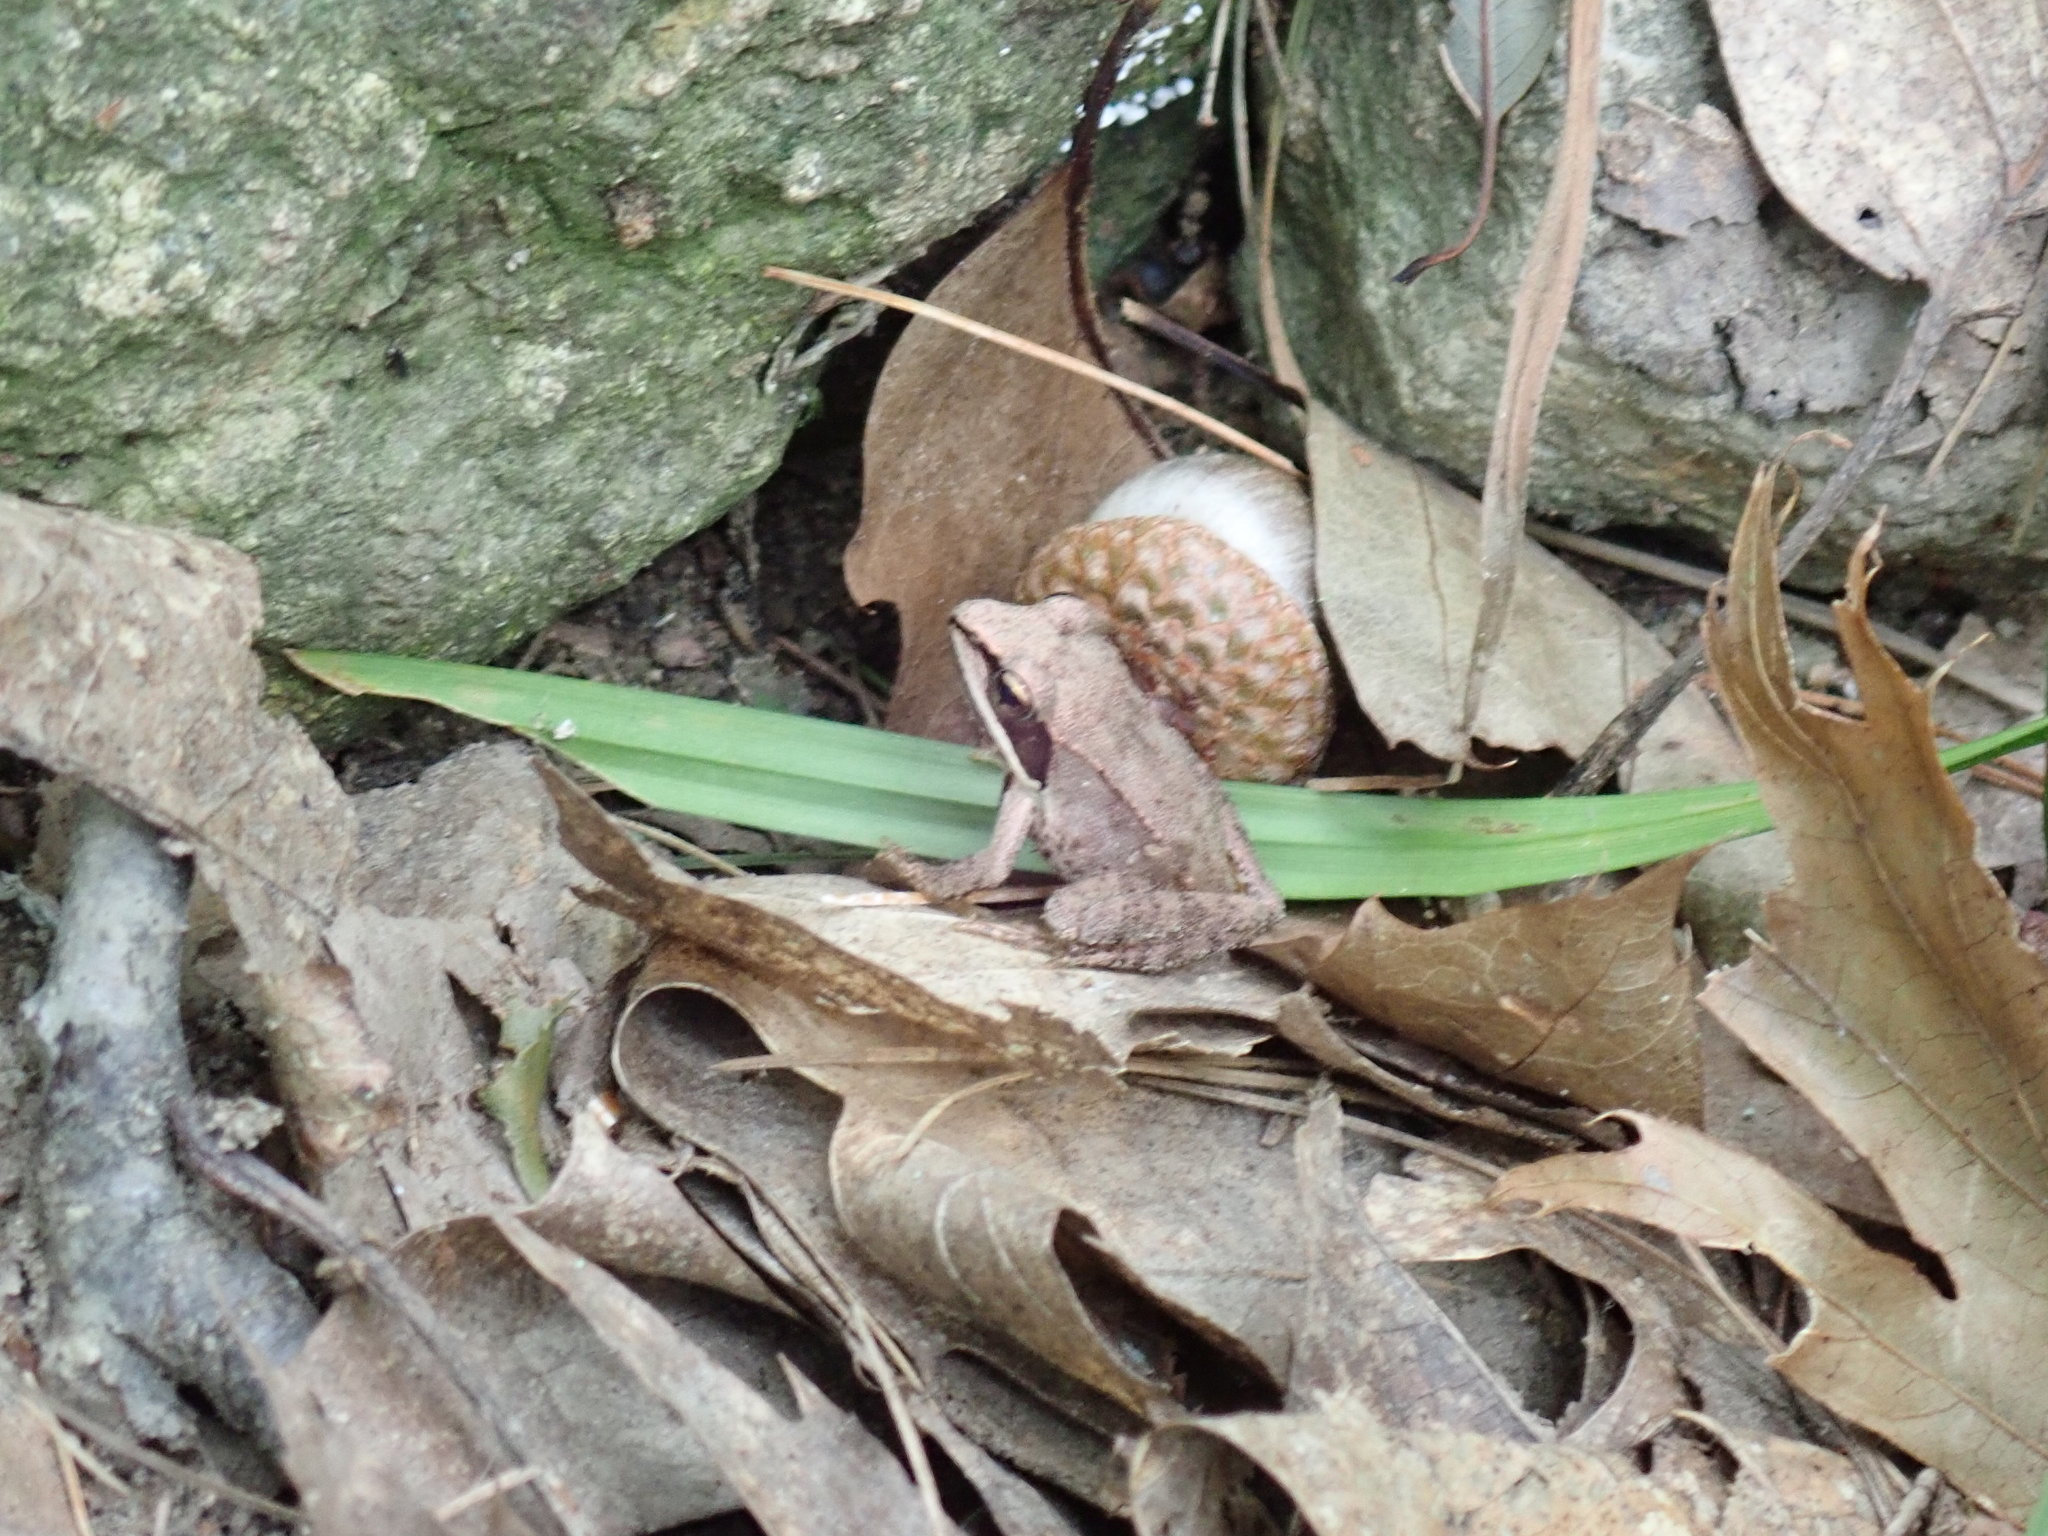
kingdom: Animalia
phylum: Chordata
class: Amphibia
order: Anura
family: Ranidae
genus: Lithobates
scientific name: Lithobates sylvaticus
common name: Wood frog
